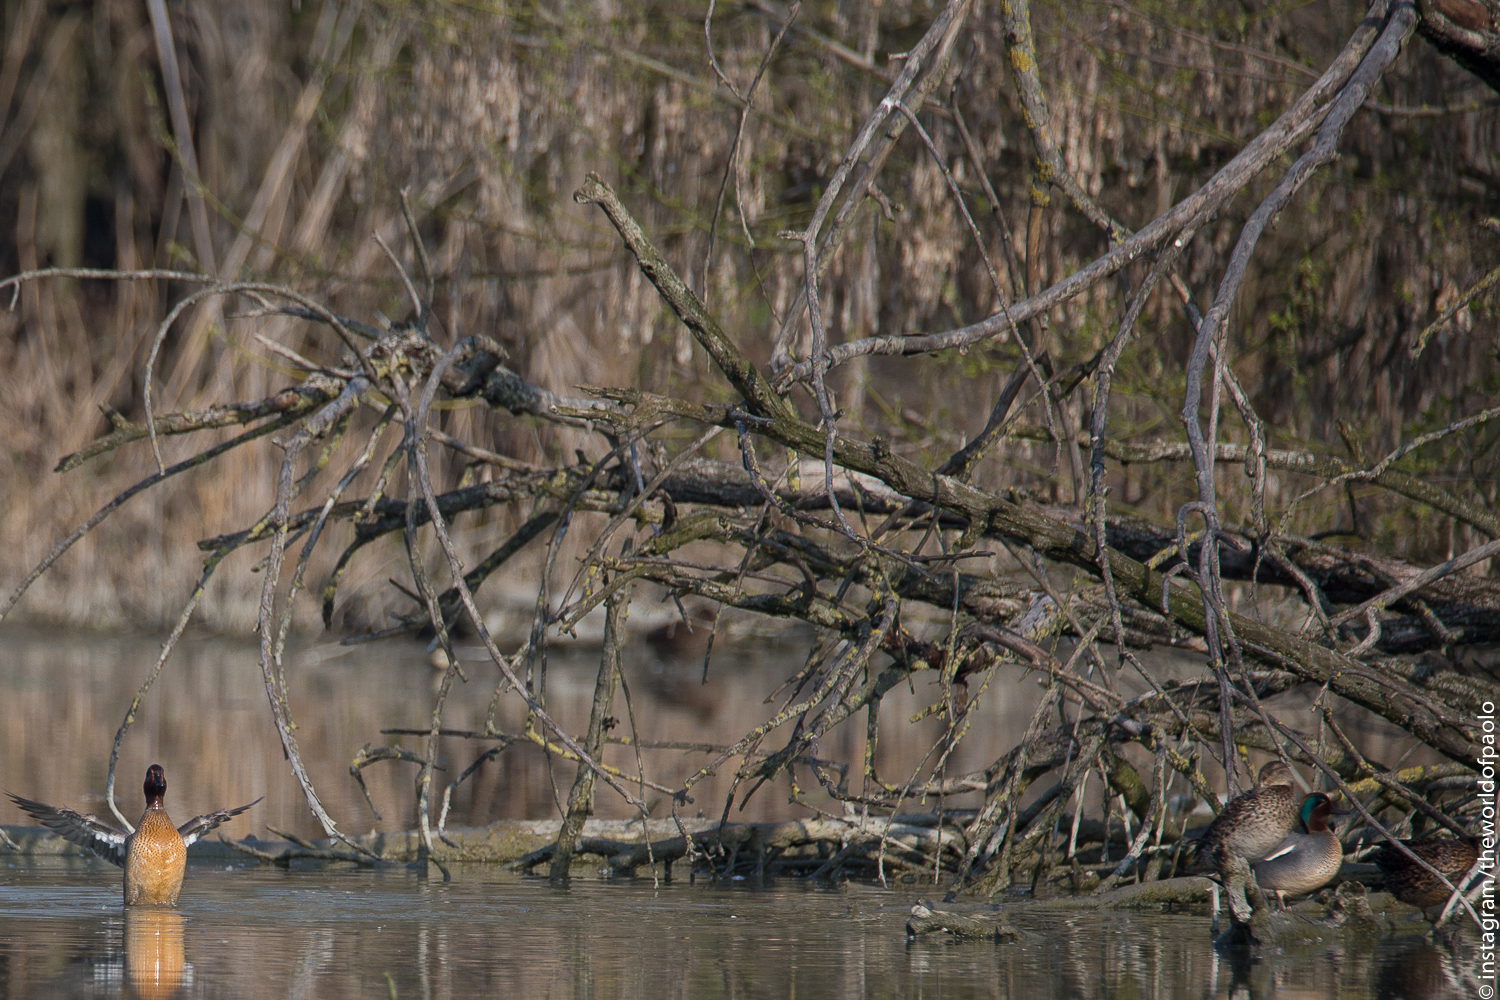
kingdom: Animalia
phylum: Chordata
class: Aves
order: Anseriformes
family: Anatidae
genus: Anas
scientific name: Anas crecca
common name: Eurasian teal
